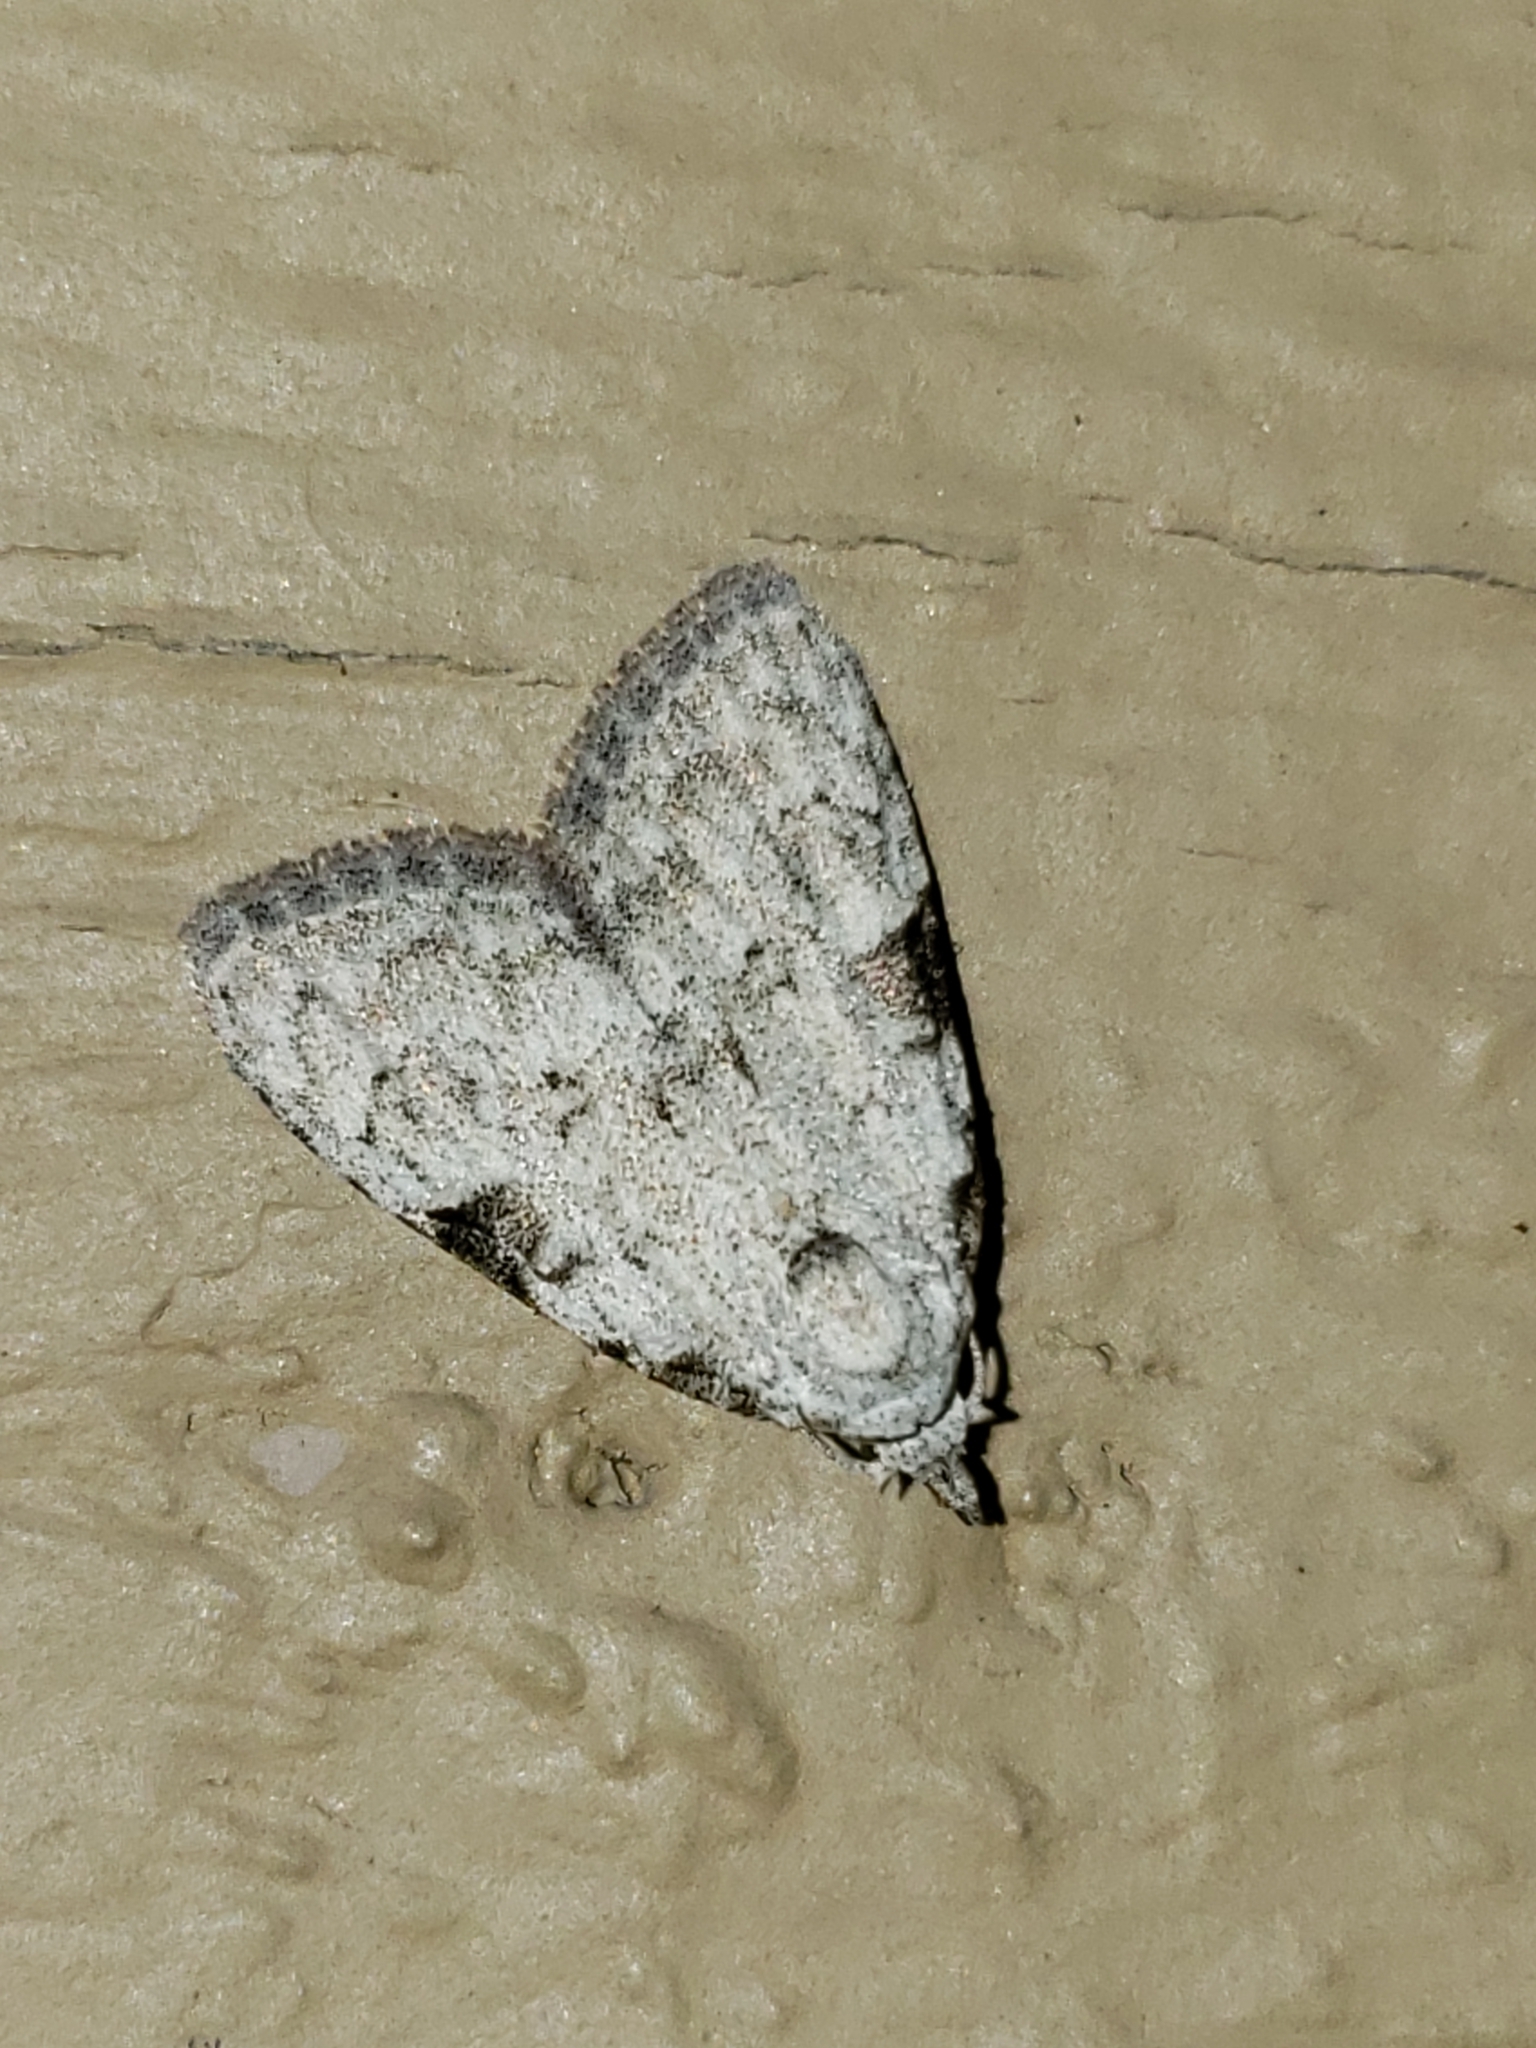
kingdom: Animalia
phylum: Arthropoda
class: Insecta
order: Lepidoptera
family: Nolidae
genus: Meganola
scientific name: Meganola minuscula
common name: Confused meganola moth
